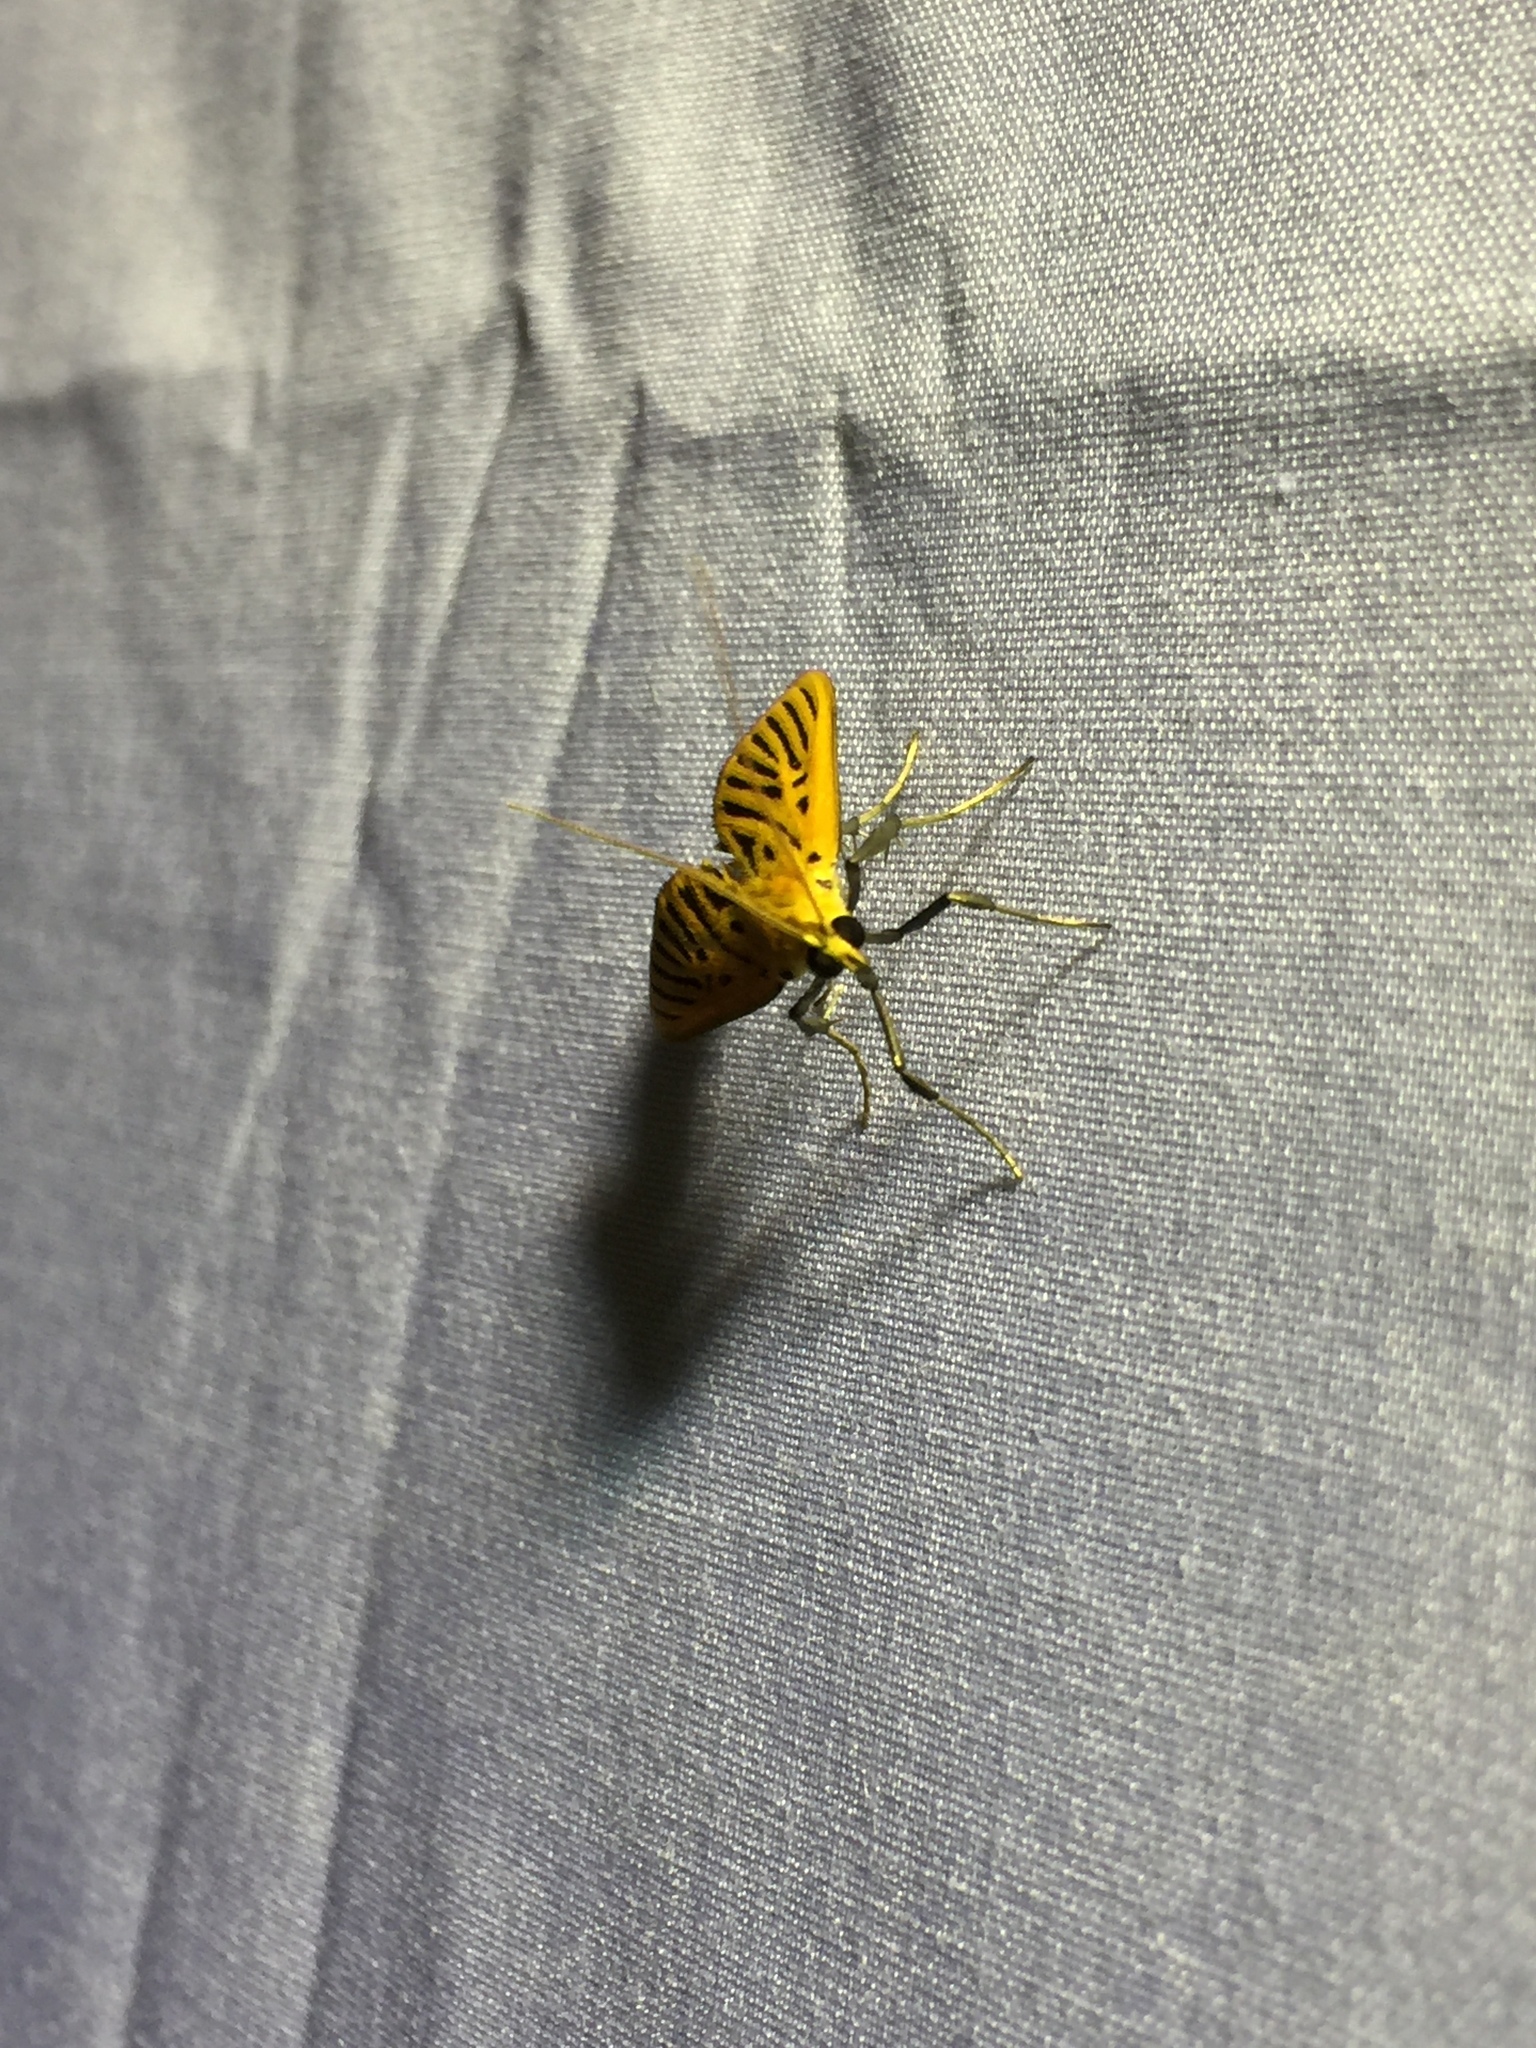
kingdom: Animalia
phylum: Arthropoda
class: Insecta
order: Lepidoptera
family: Crambidae
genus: Tyspanodes
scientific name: Tyspanodes striata
